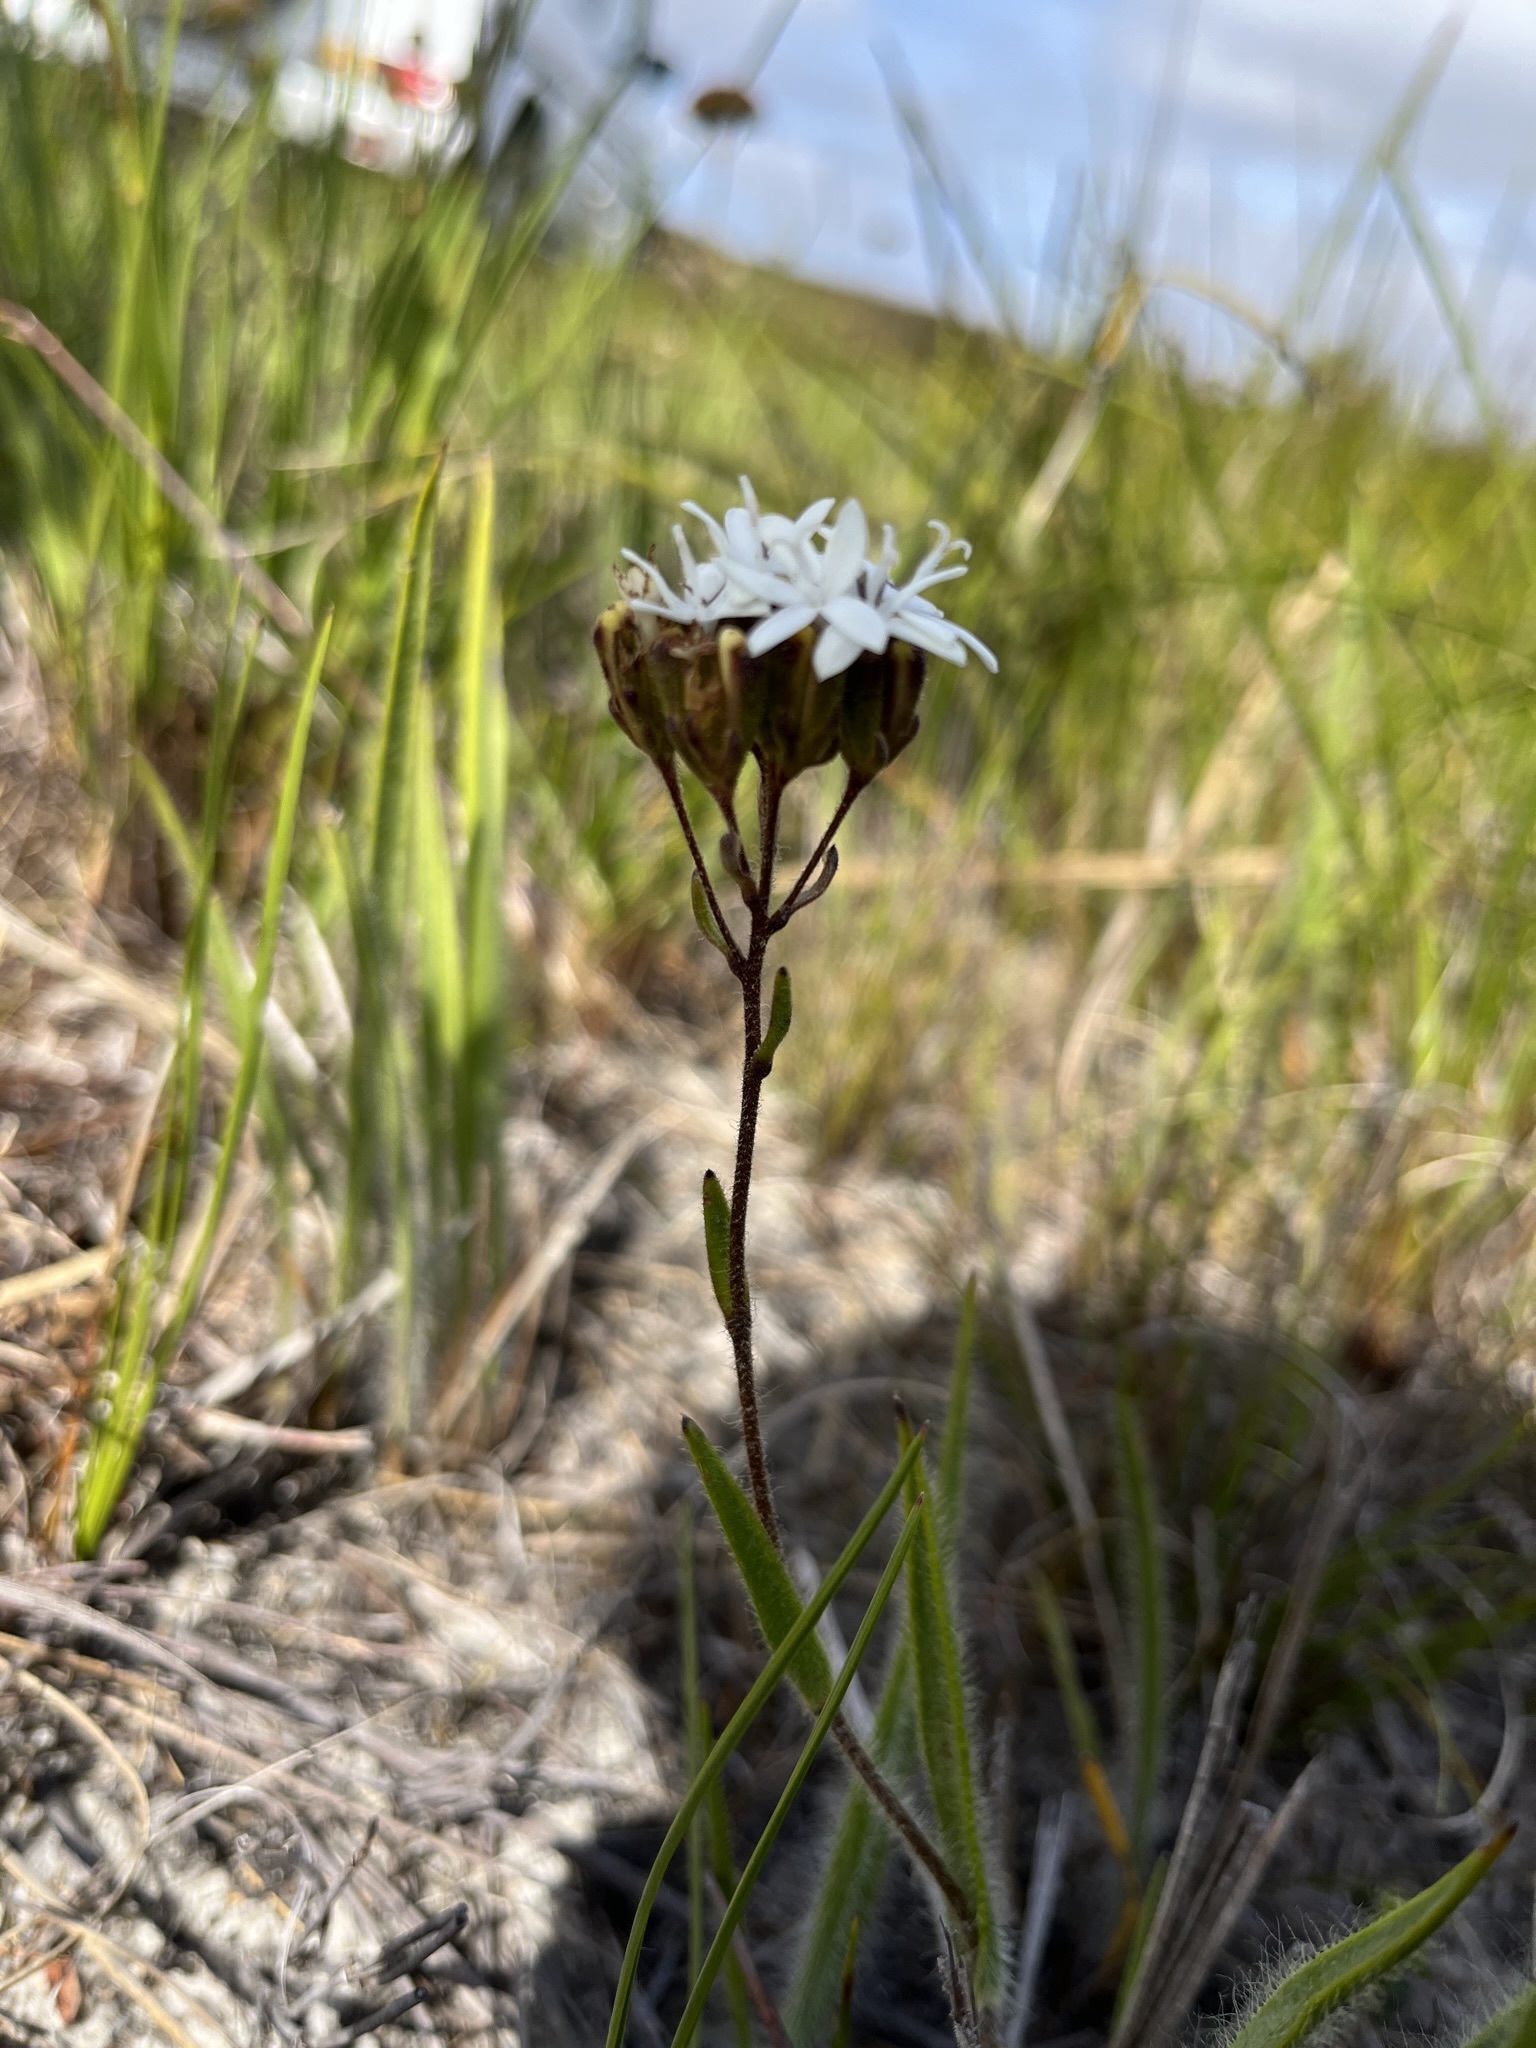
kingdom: Plantae
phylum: Tracheophyta
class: Magnoliopsida
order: Asterales
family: Asteraceae
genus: Corymbium
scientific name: Corymbium villosum
